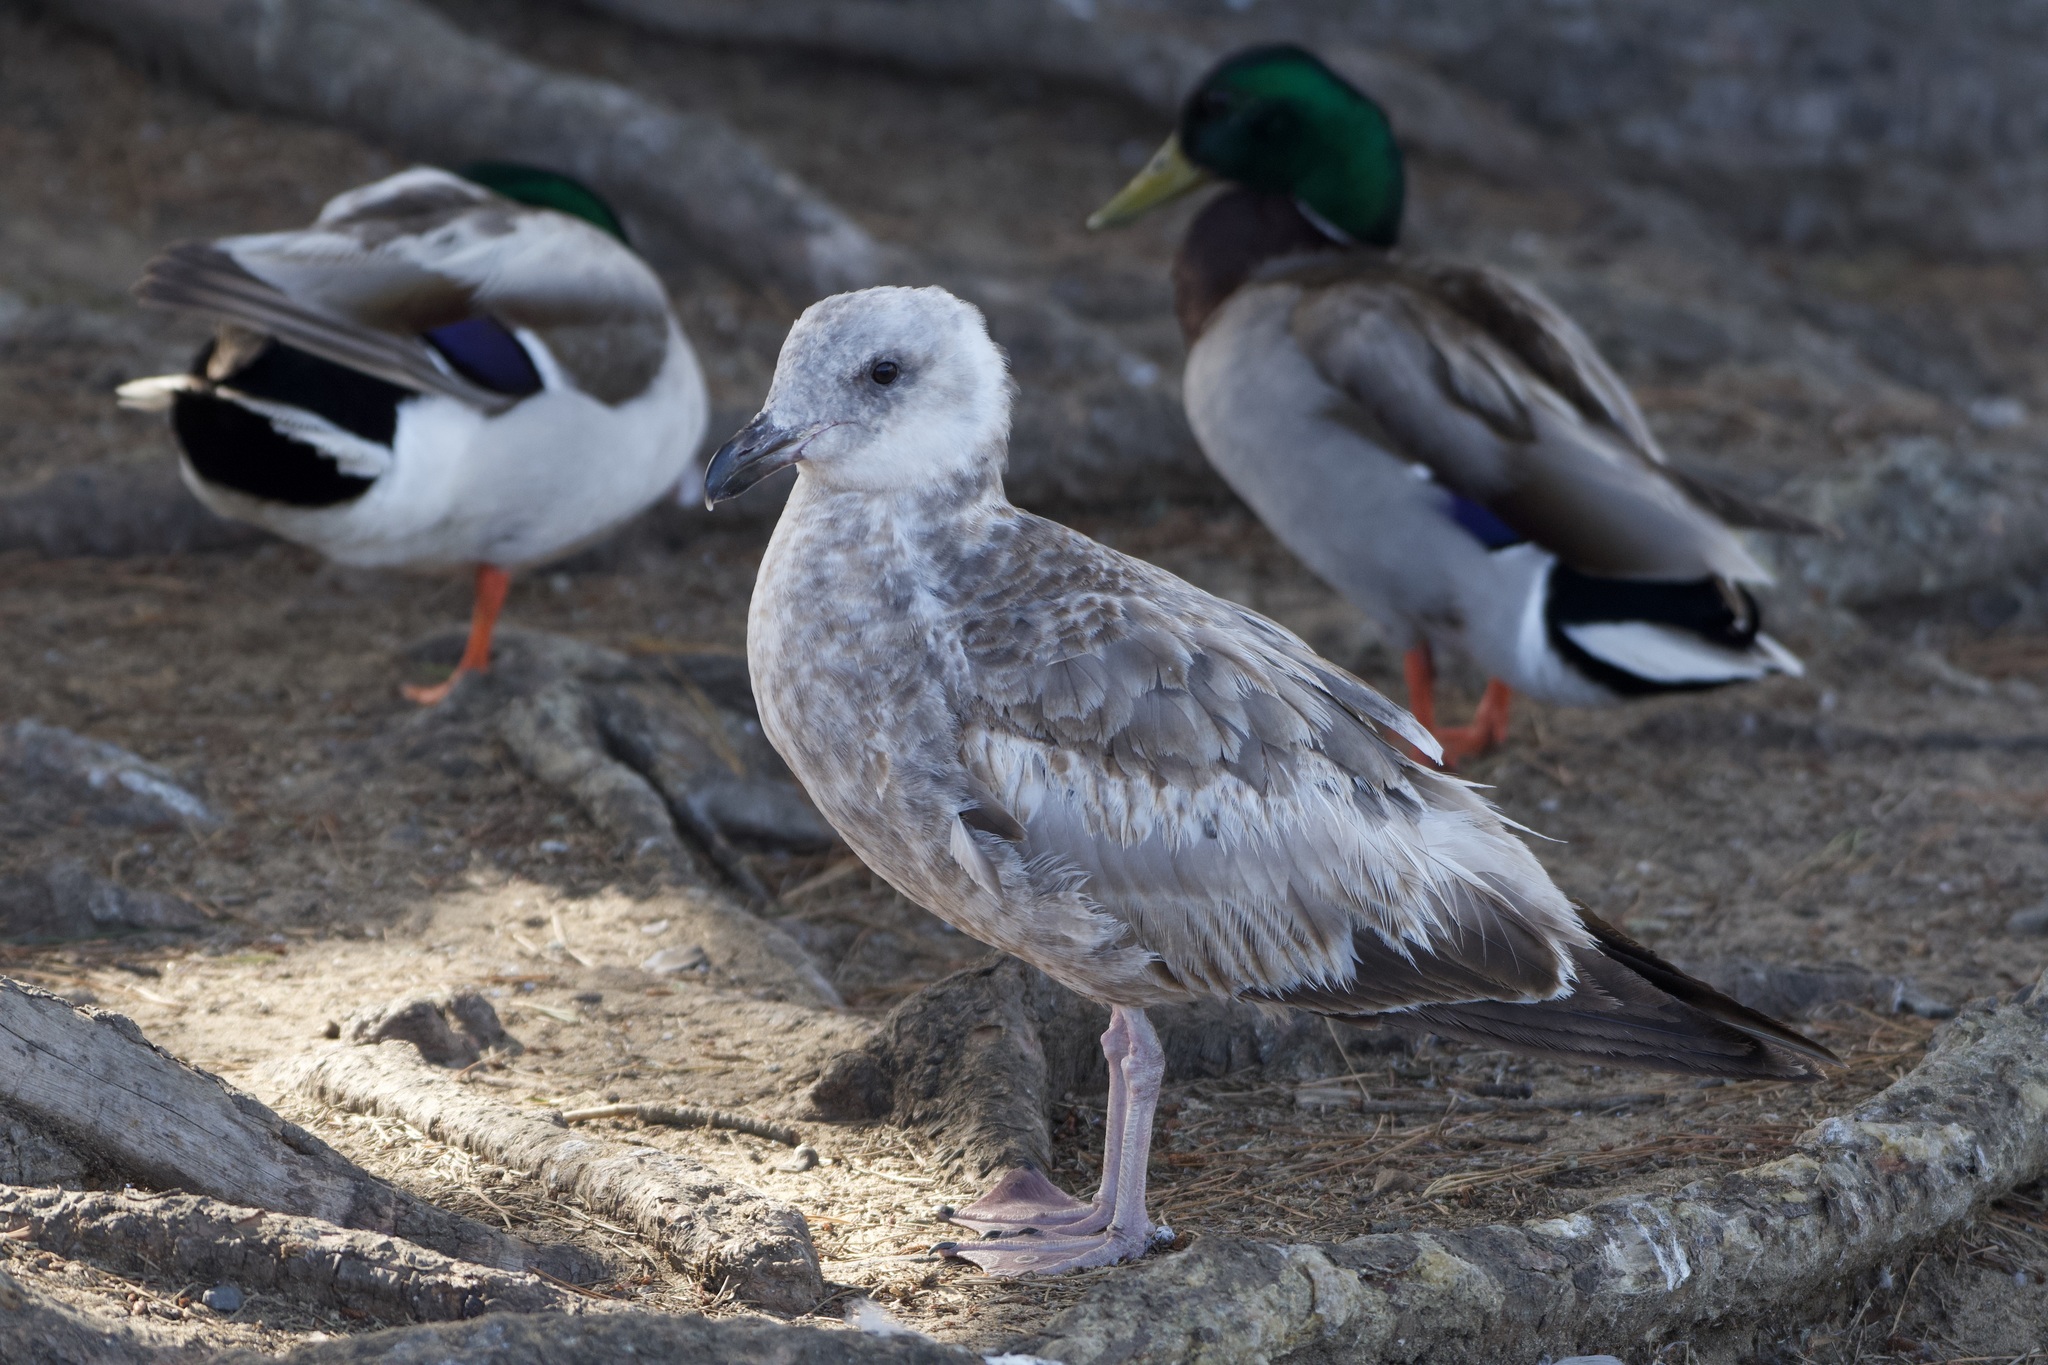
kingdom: Animalia
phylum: Chordata
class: Aves
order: Charadriiformes
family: Laridae
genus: Larus
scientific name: Larus occidentalis
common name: Western gull
